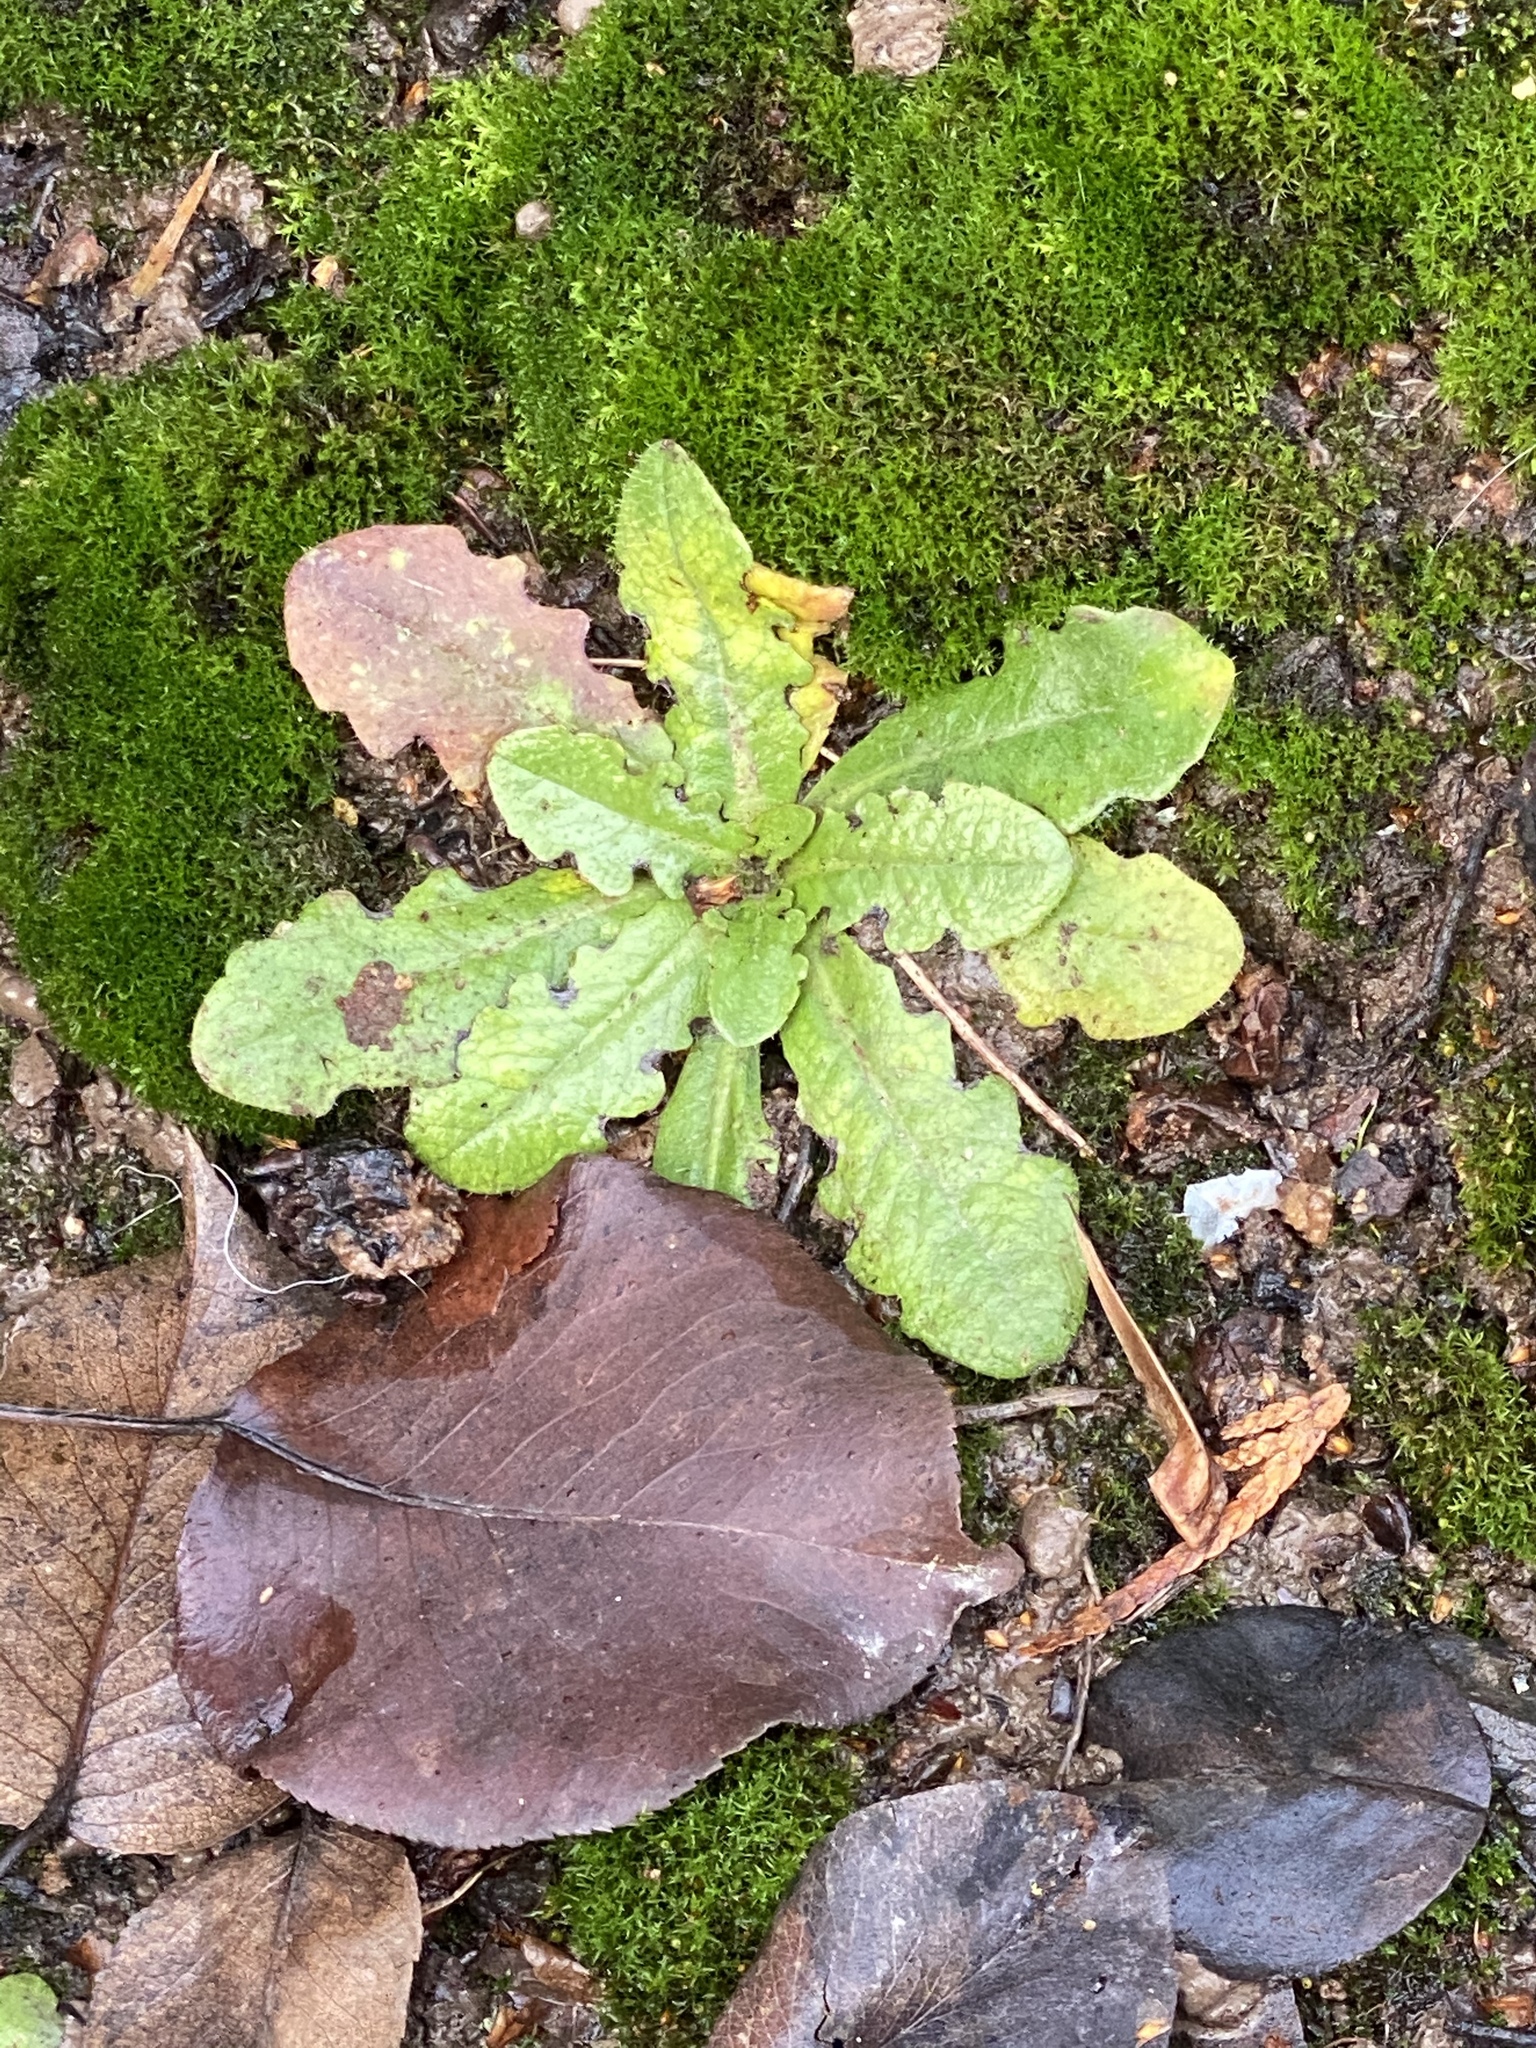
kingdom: Plantae
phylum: Tracheophyta
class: Magnoliopsida
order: Asterales
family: Asteraceae
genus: Hypochaeris
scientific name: Hypochaeris radicata
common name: Flatweed
